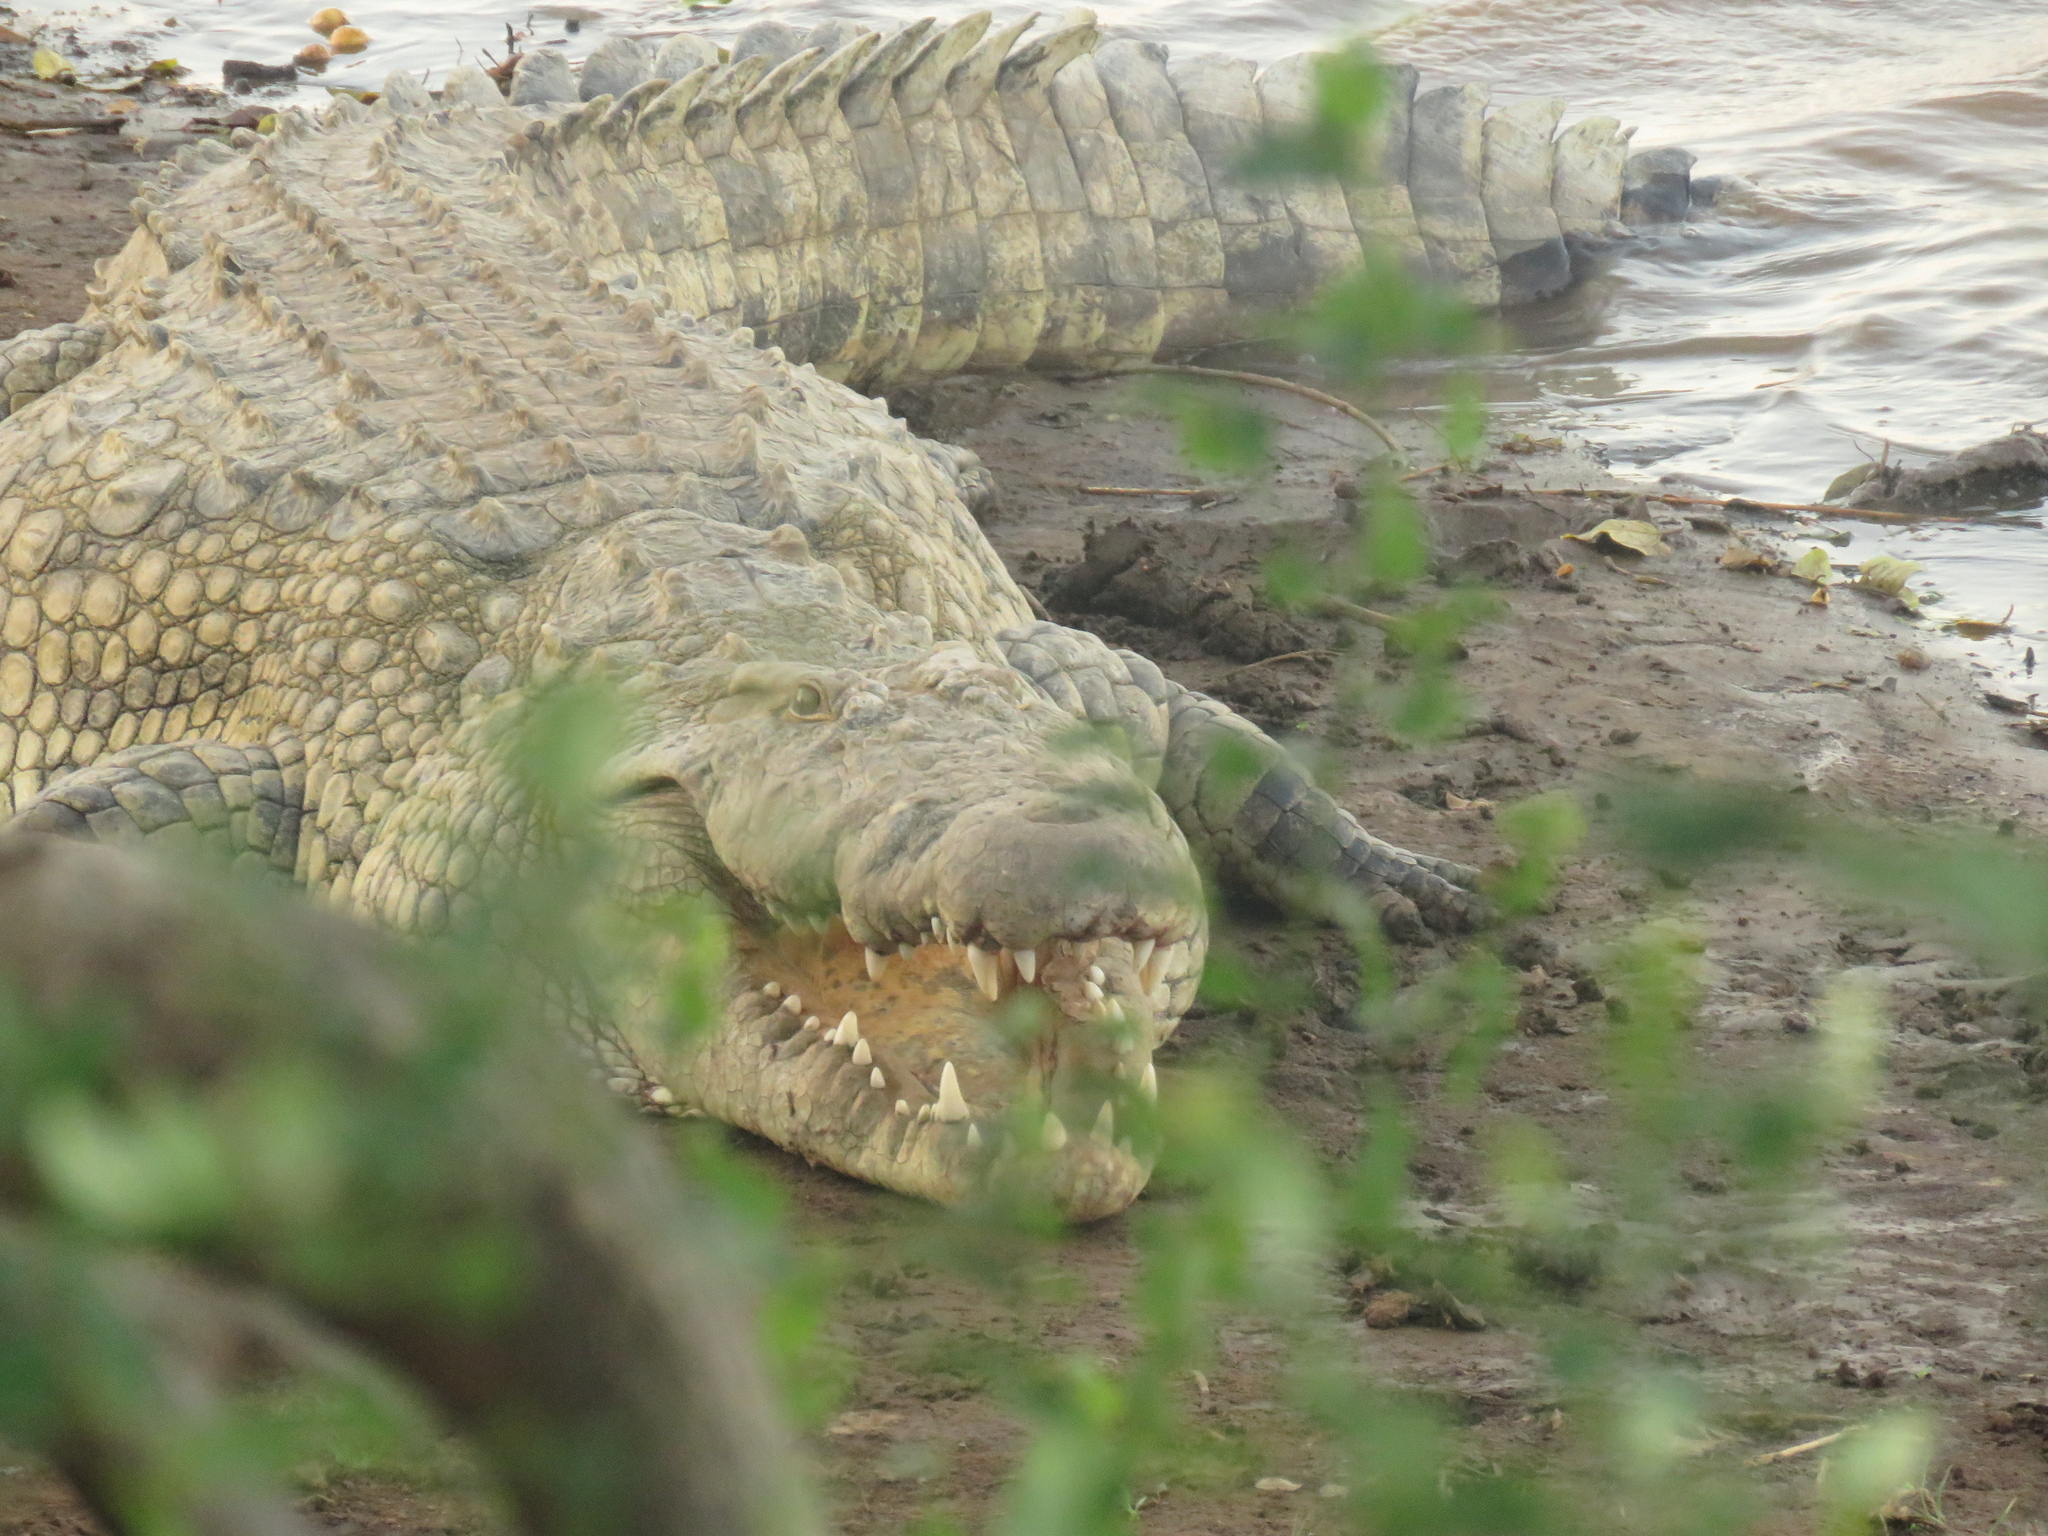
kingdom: Animalia
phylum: Chordata
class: Crocodylia
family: Crocodylidae
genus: Crocodylus
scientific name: Crocodylus niloticus
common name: Nile crocodile
